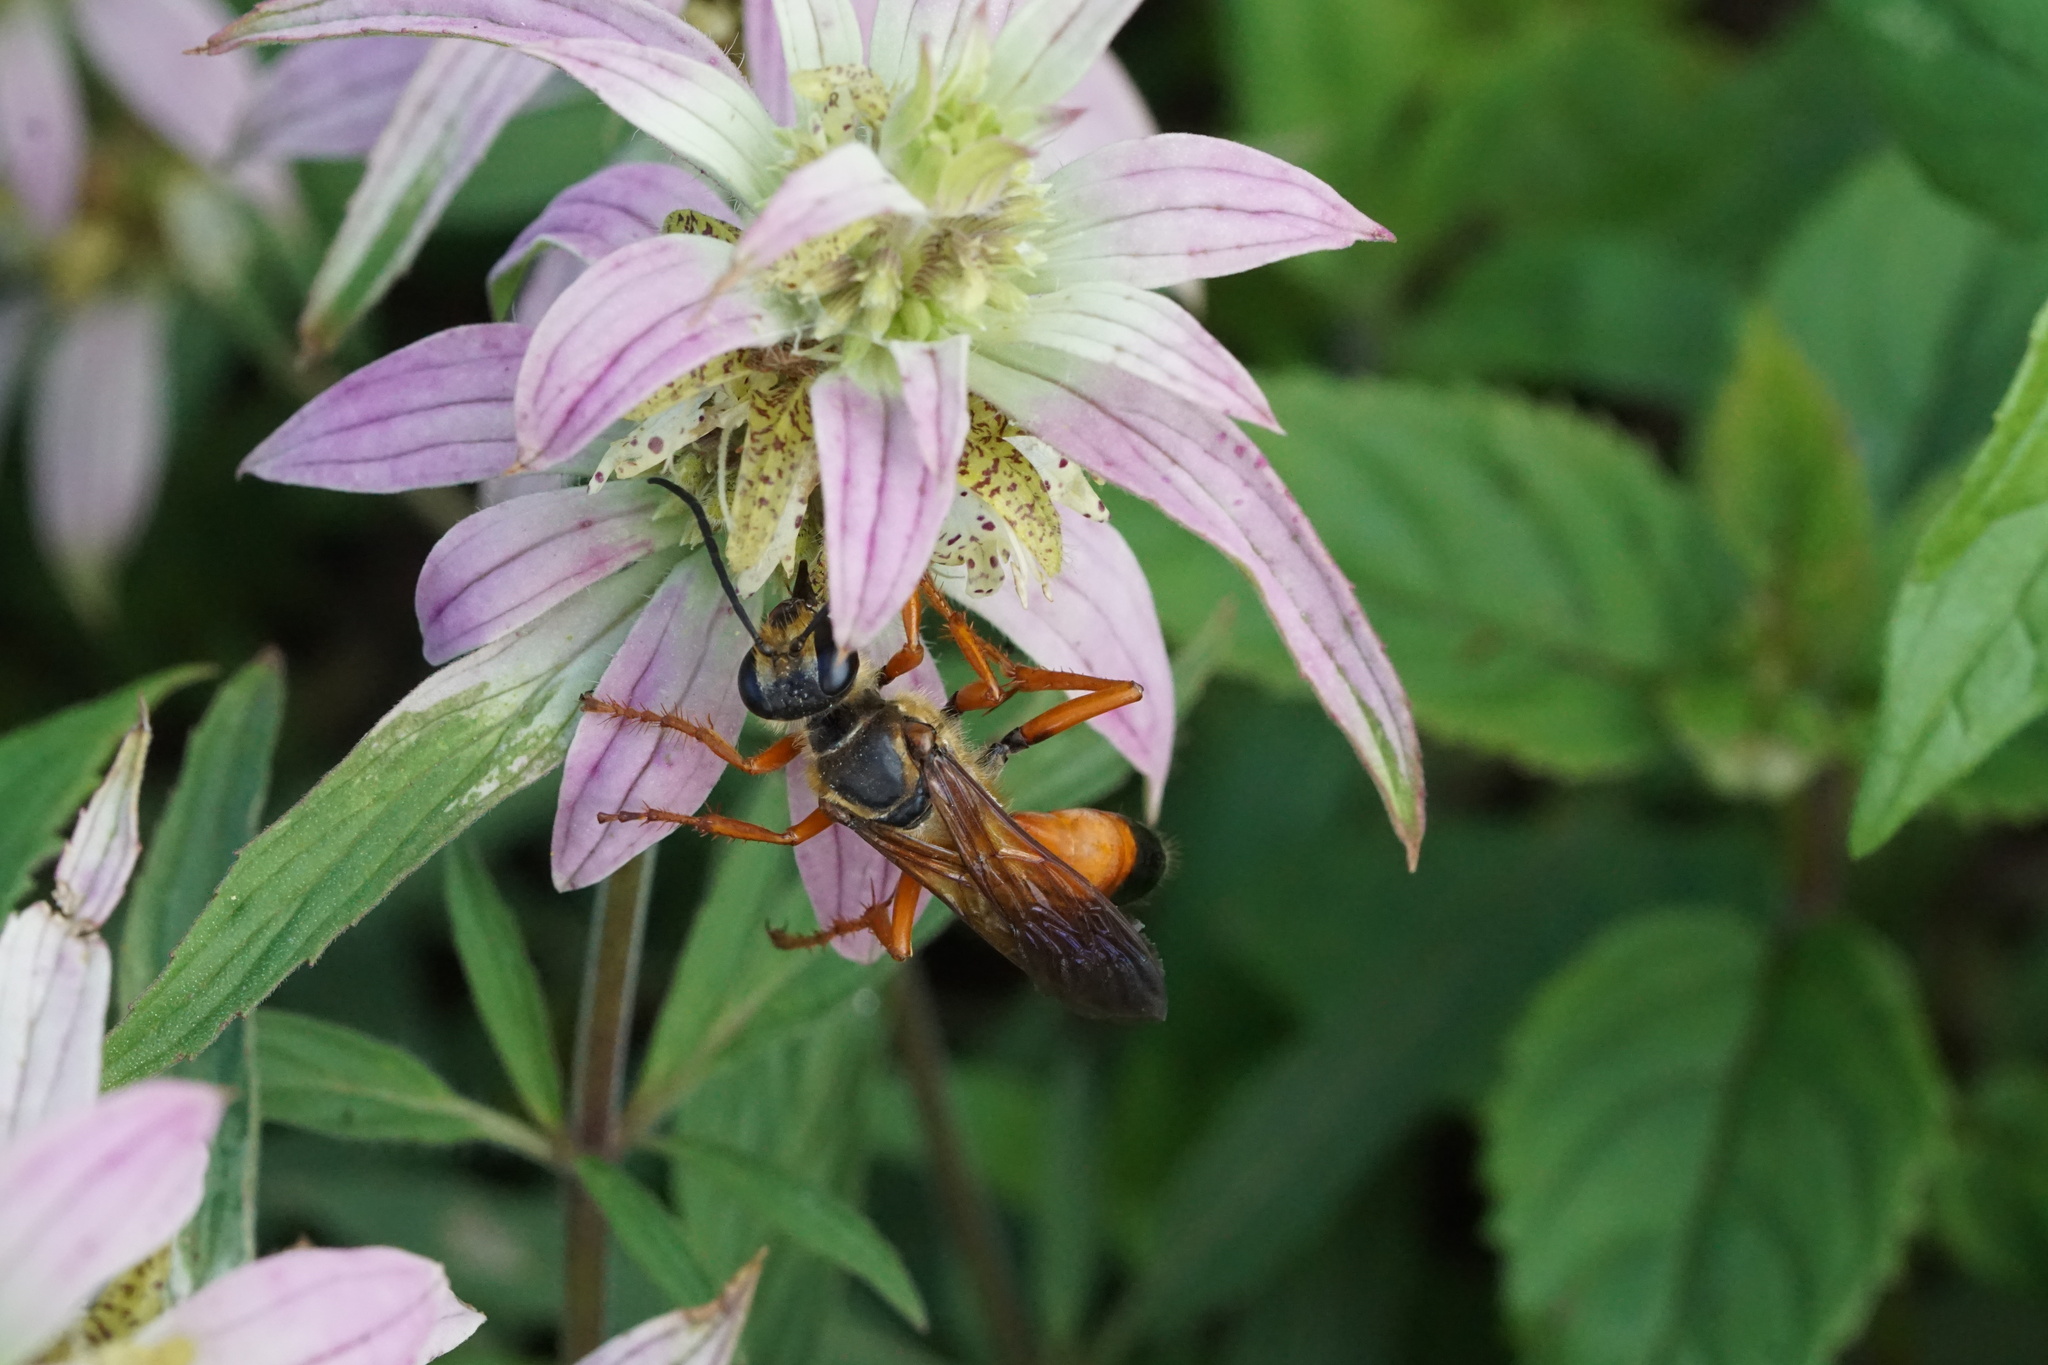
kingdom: Animalia
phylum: Arthropoda
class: Insecta
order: Hymenoptera
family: Sphecidae
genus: Sphex
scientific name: Sphex ichneumoneus
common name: Great golden digger wasp
